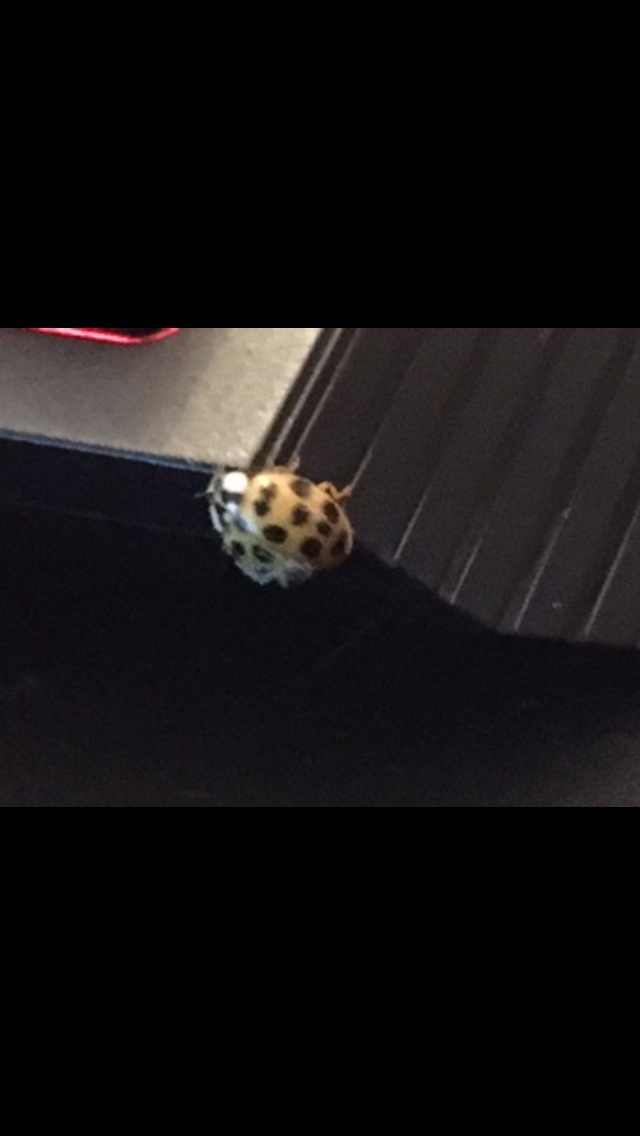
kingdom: Animalia
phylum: Arthropoda
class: Insecta
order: Coleoptera
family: Coccinellidae
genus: Harmonia
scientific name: Harmonia axyridis
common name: Harlequin ladybird
